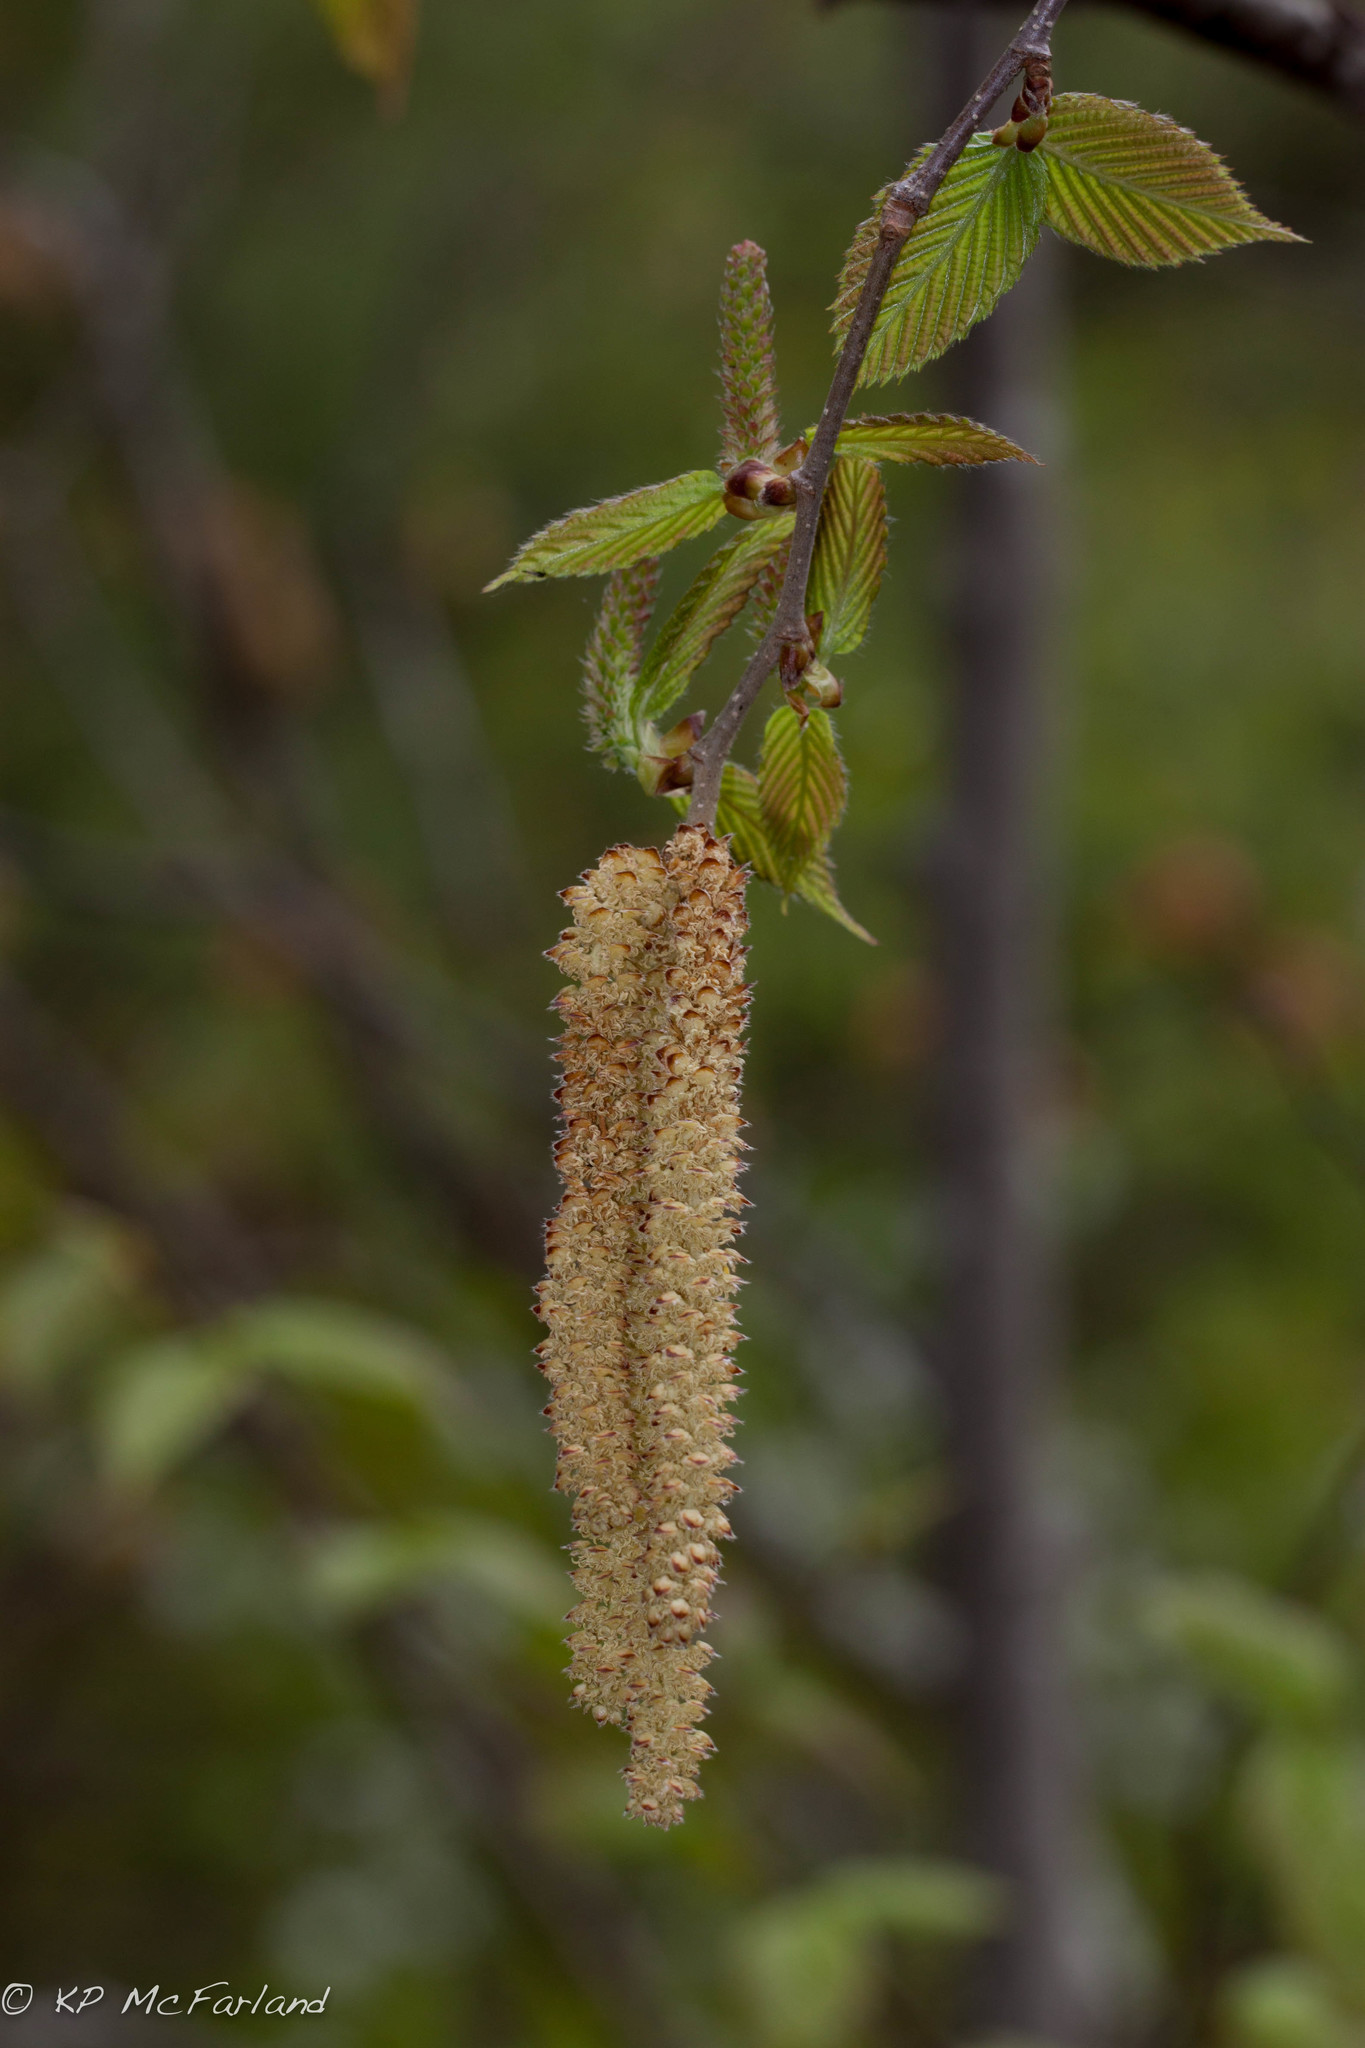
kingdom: Plantae
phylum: Tracheophyta
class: Magnoliopsida
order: Fagales
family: Betulaceae
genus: Ostrya
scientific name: Ostrya virginiana
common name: Ironwood
